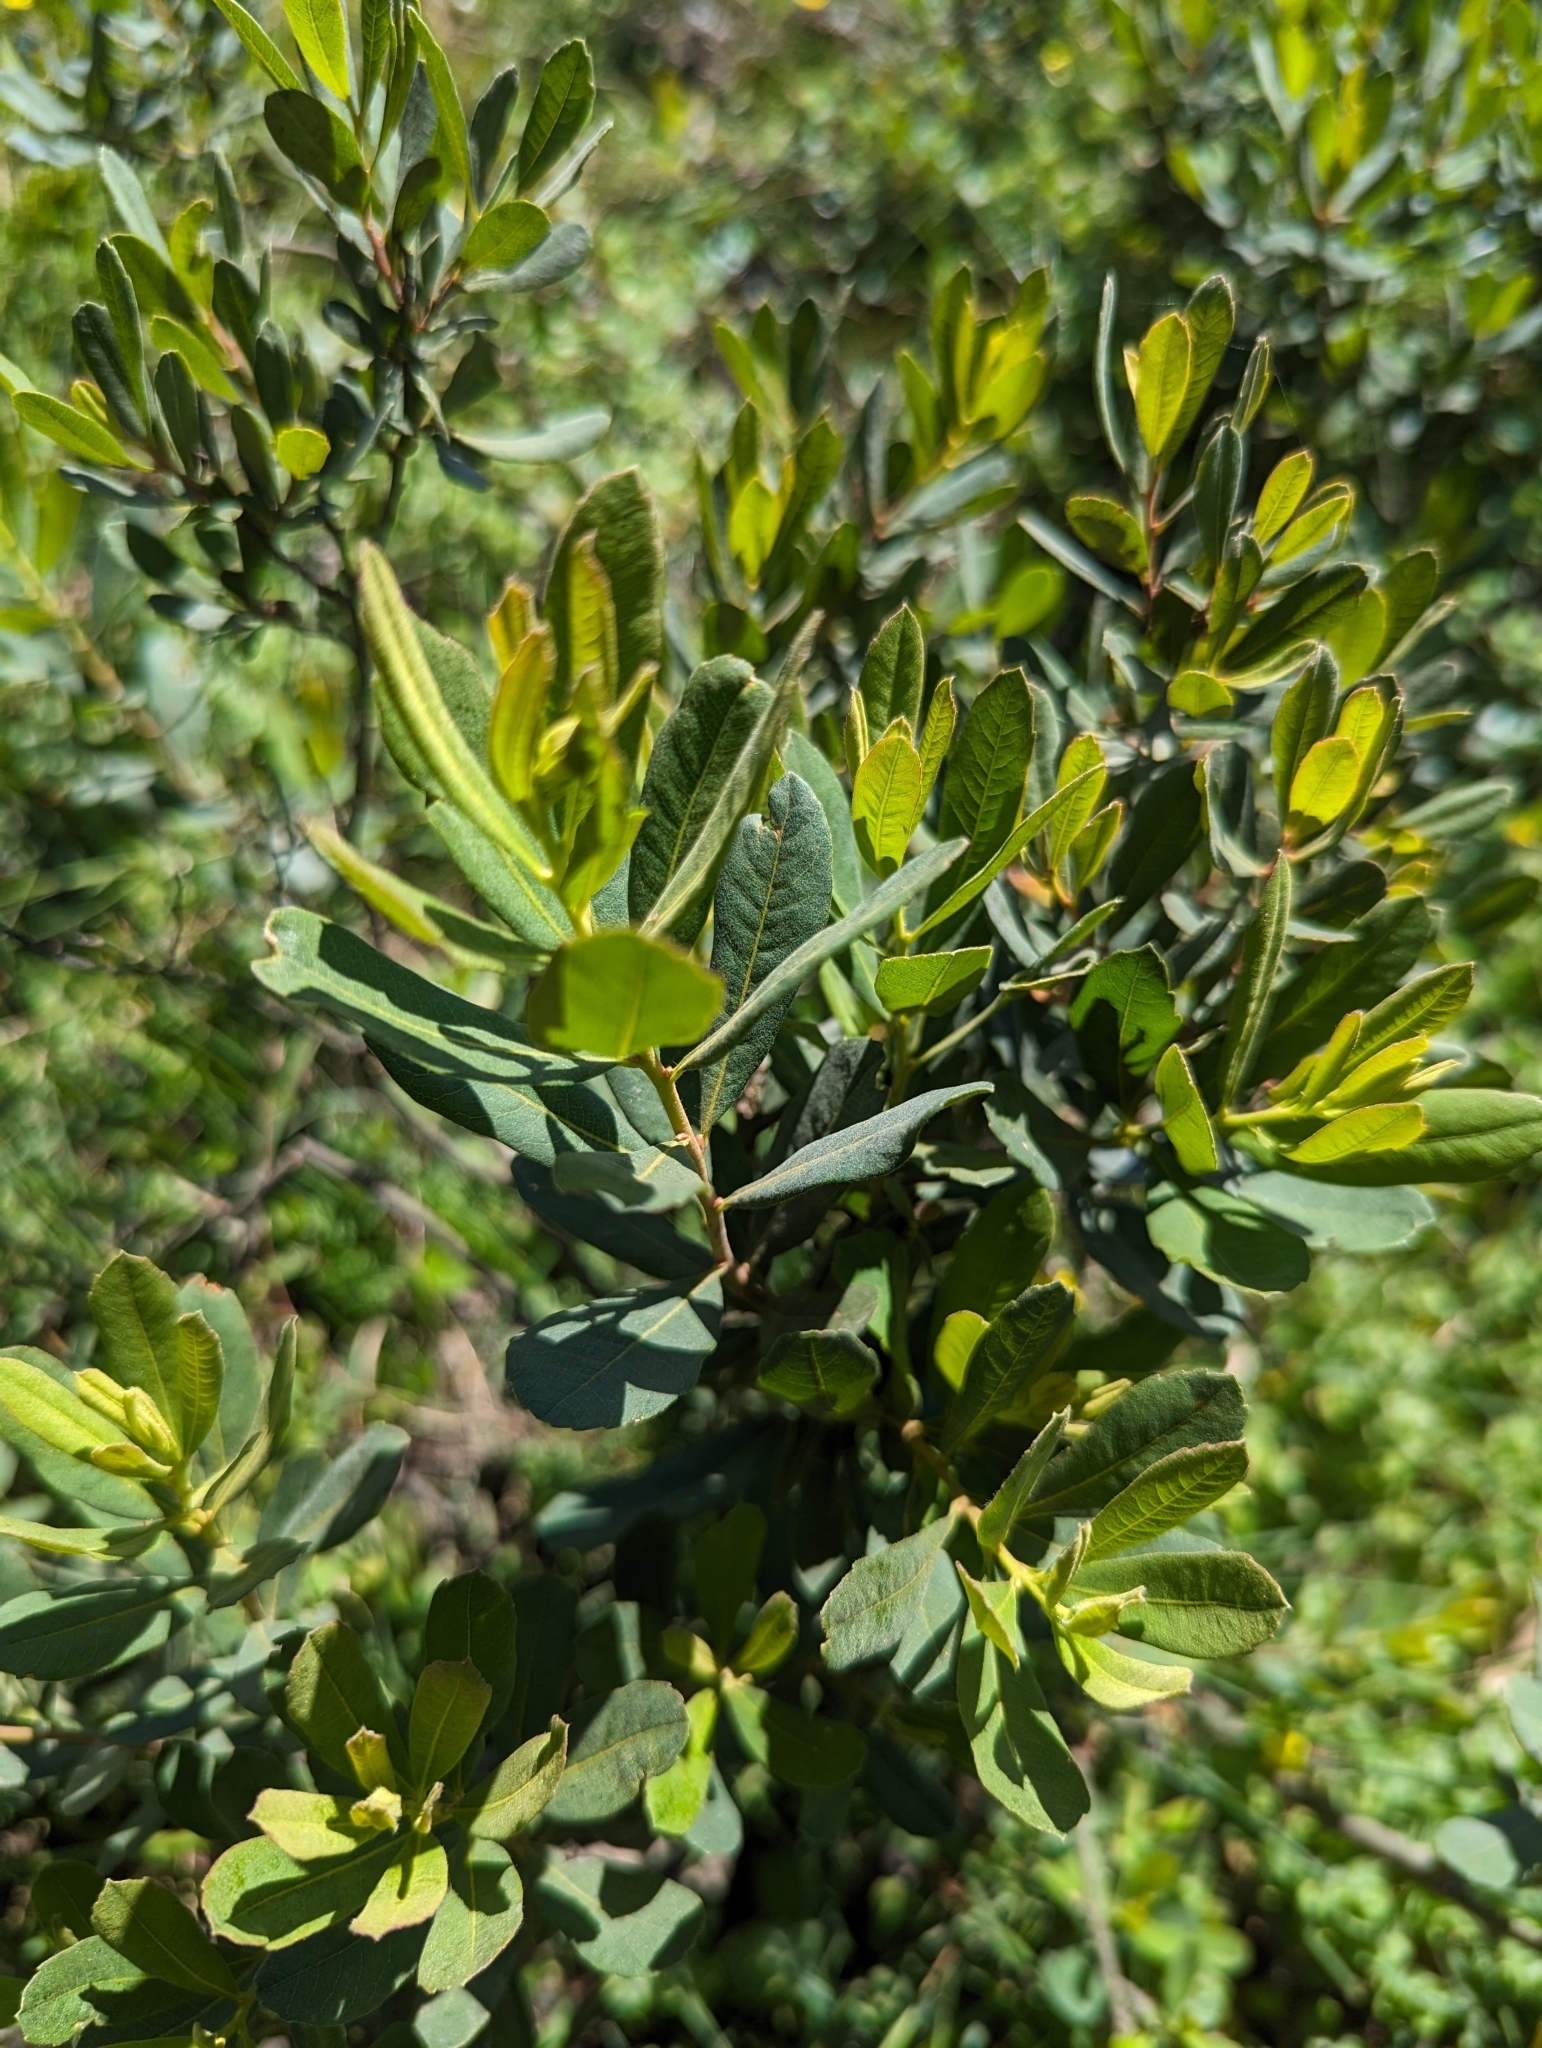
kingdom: Plantae
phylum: Tracheophyta
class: Magnoliopsida
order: Fagales
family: Myricaceae
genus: Myrica
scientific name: Myrica gale
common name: Sweet gale
